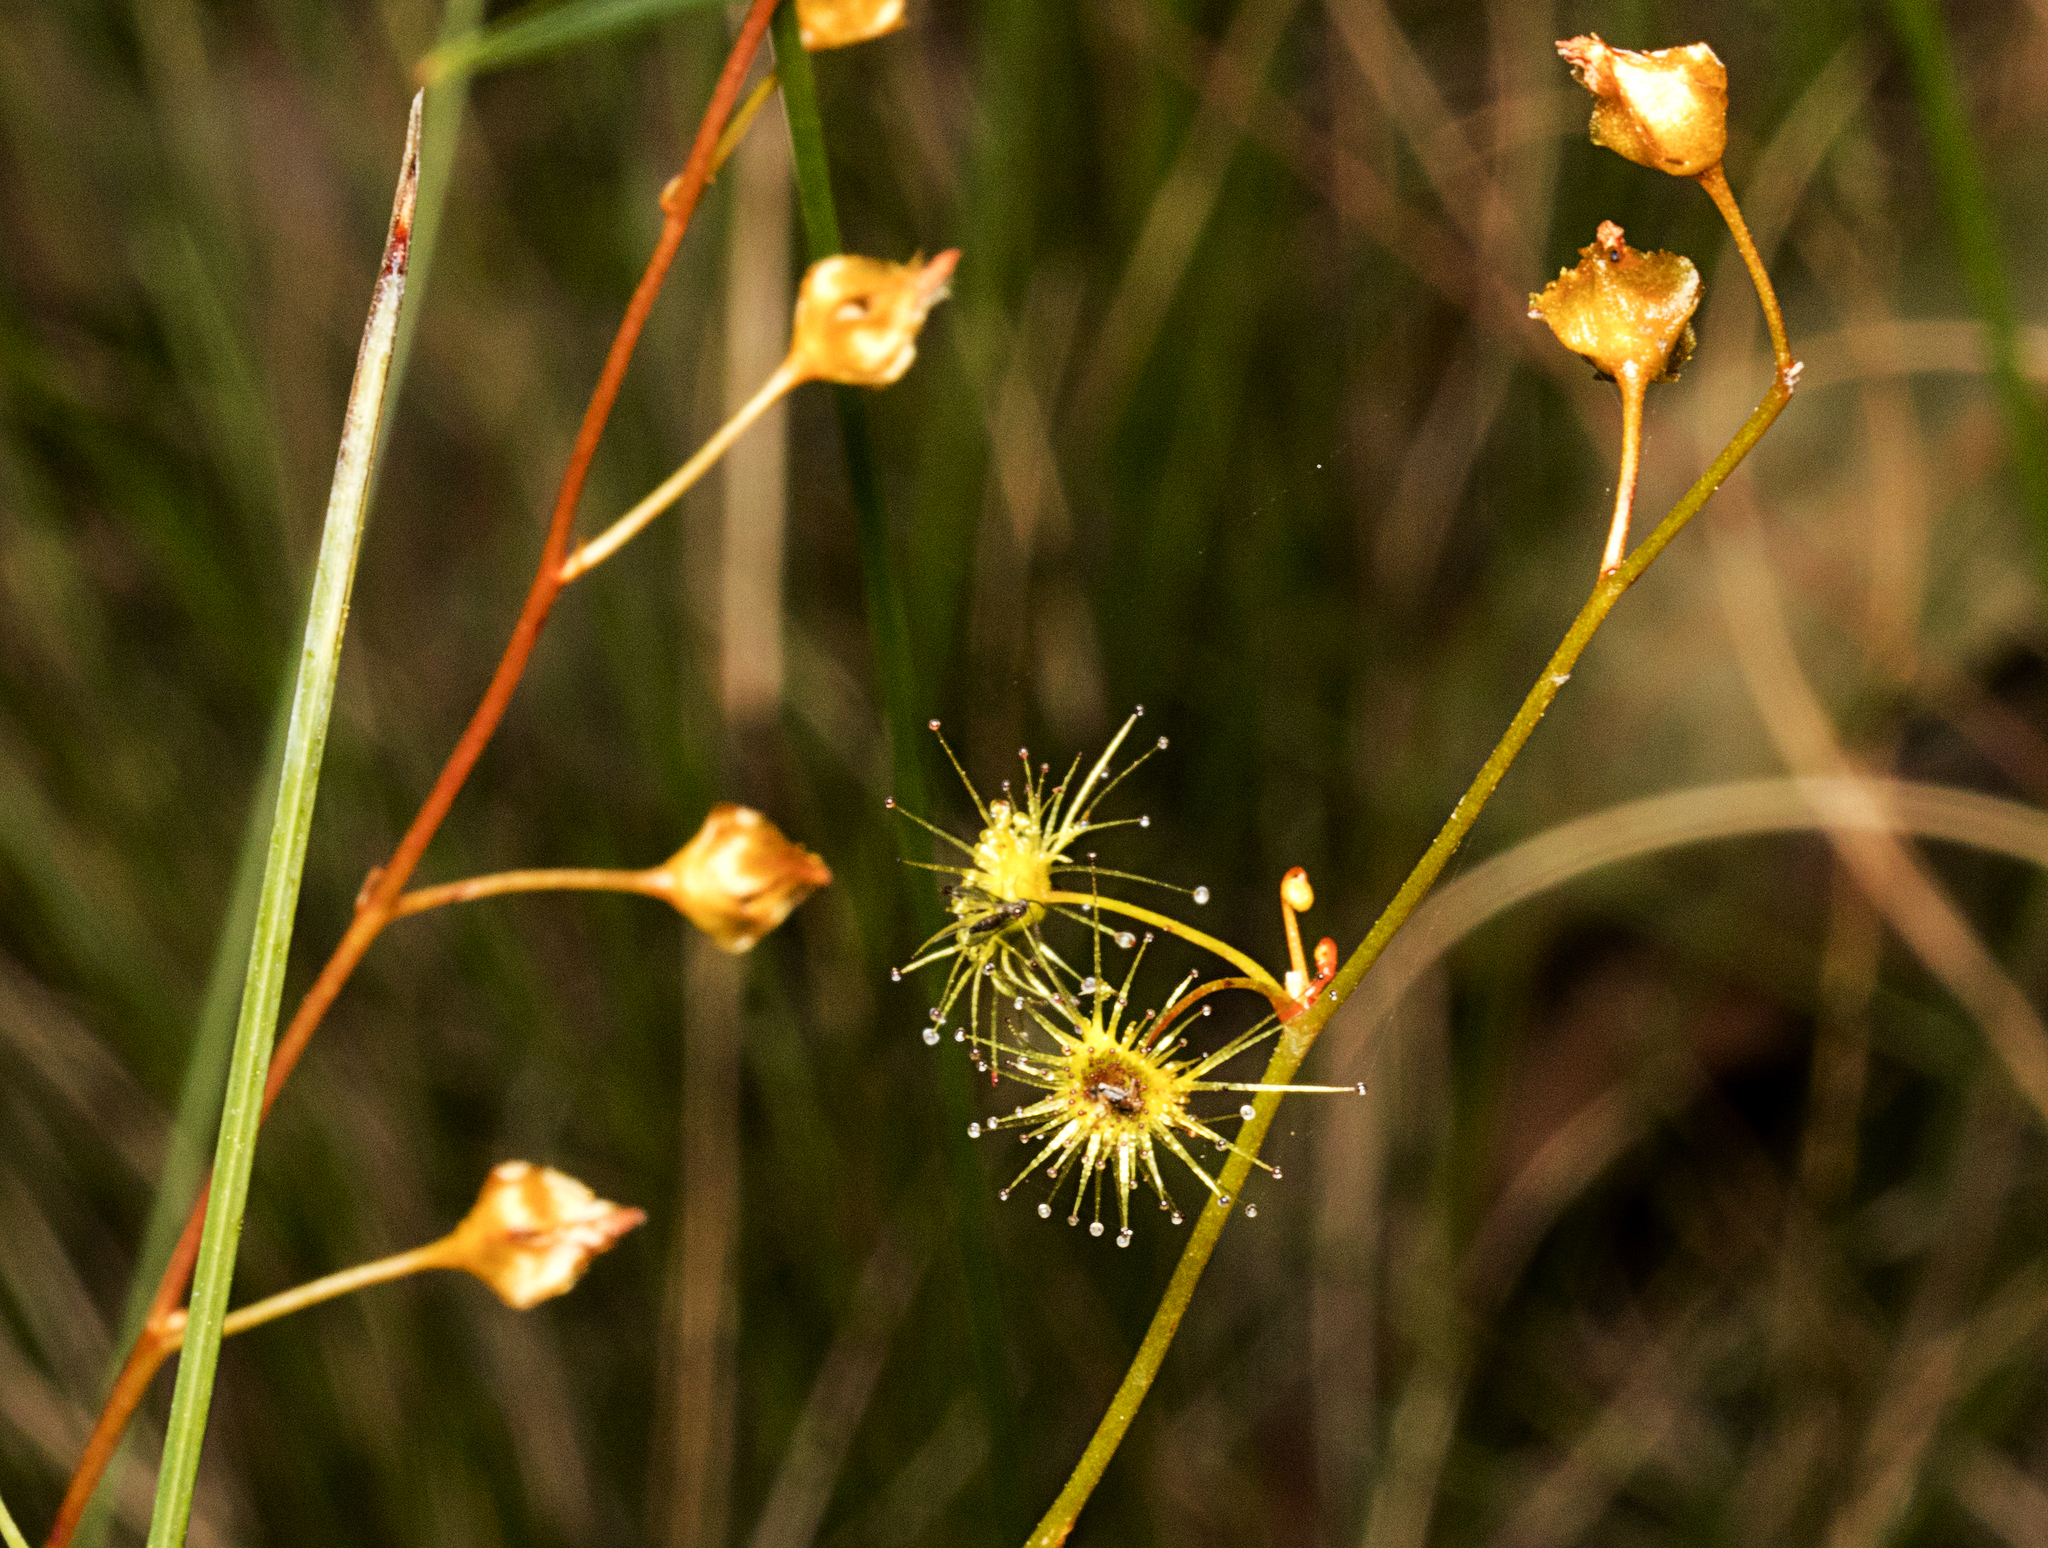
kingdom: Plantae
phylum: Tracheophyta
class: Magnoliopsida
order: Caryophyllales
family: Droseraceae
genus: Drosera
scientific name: Drosera peltata
